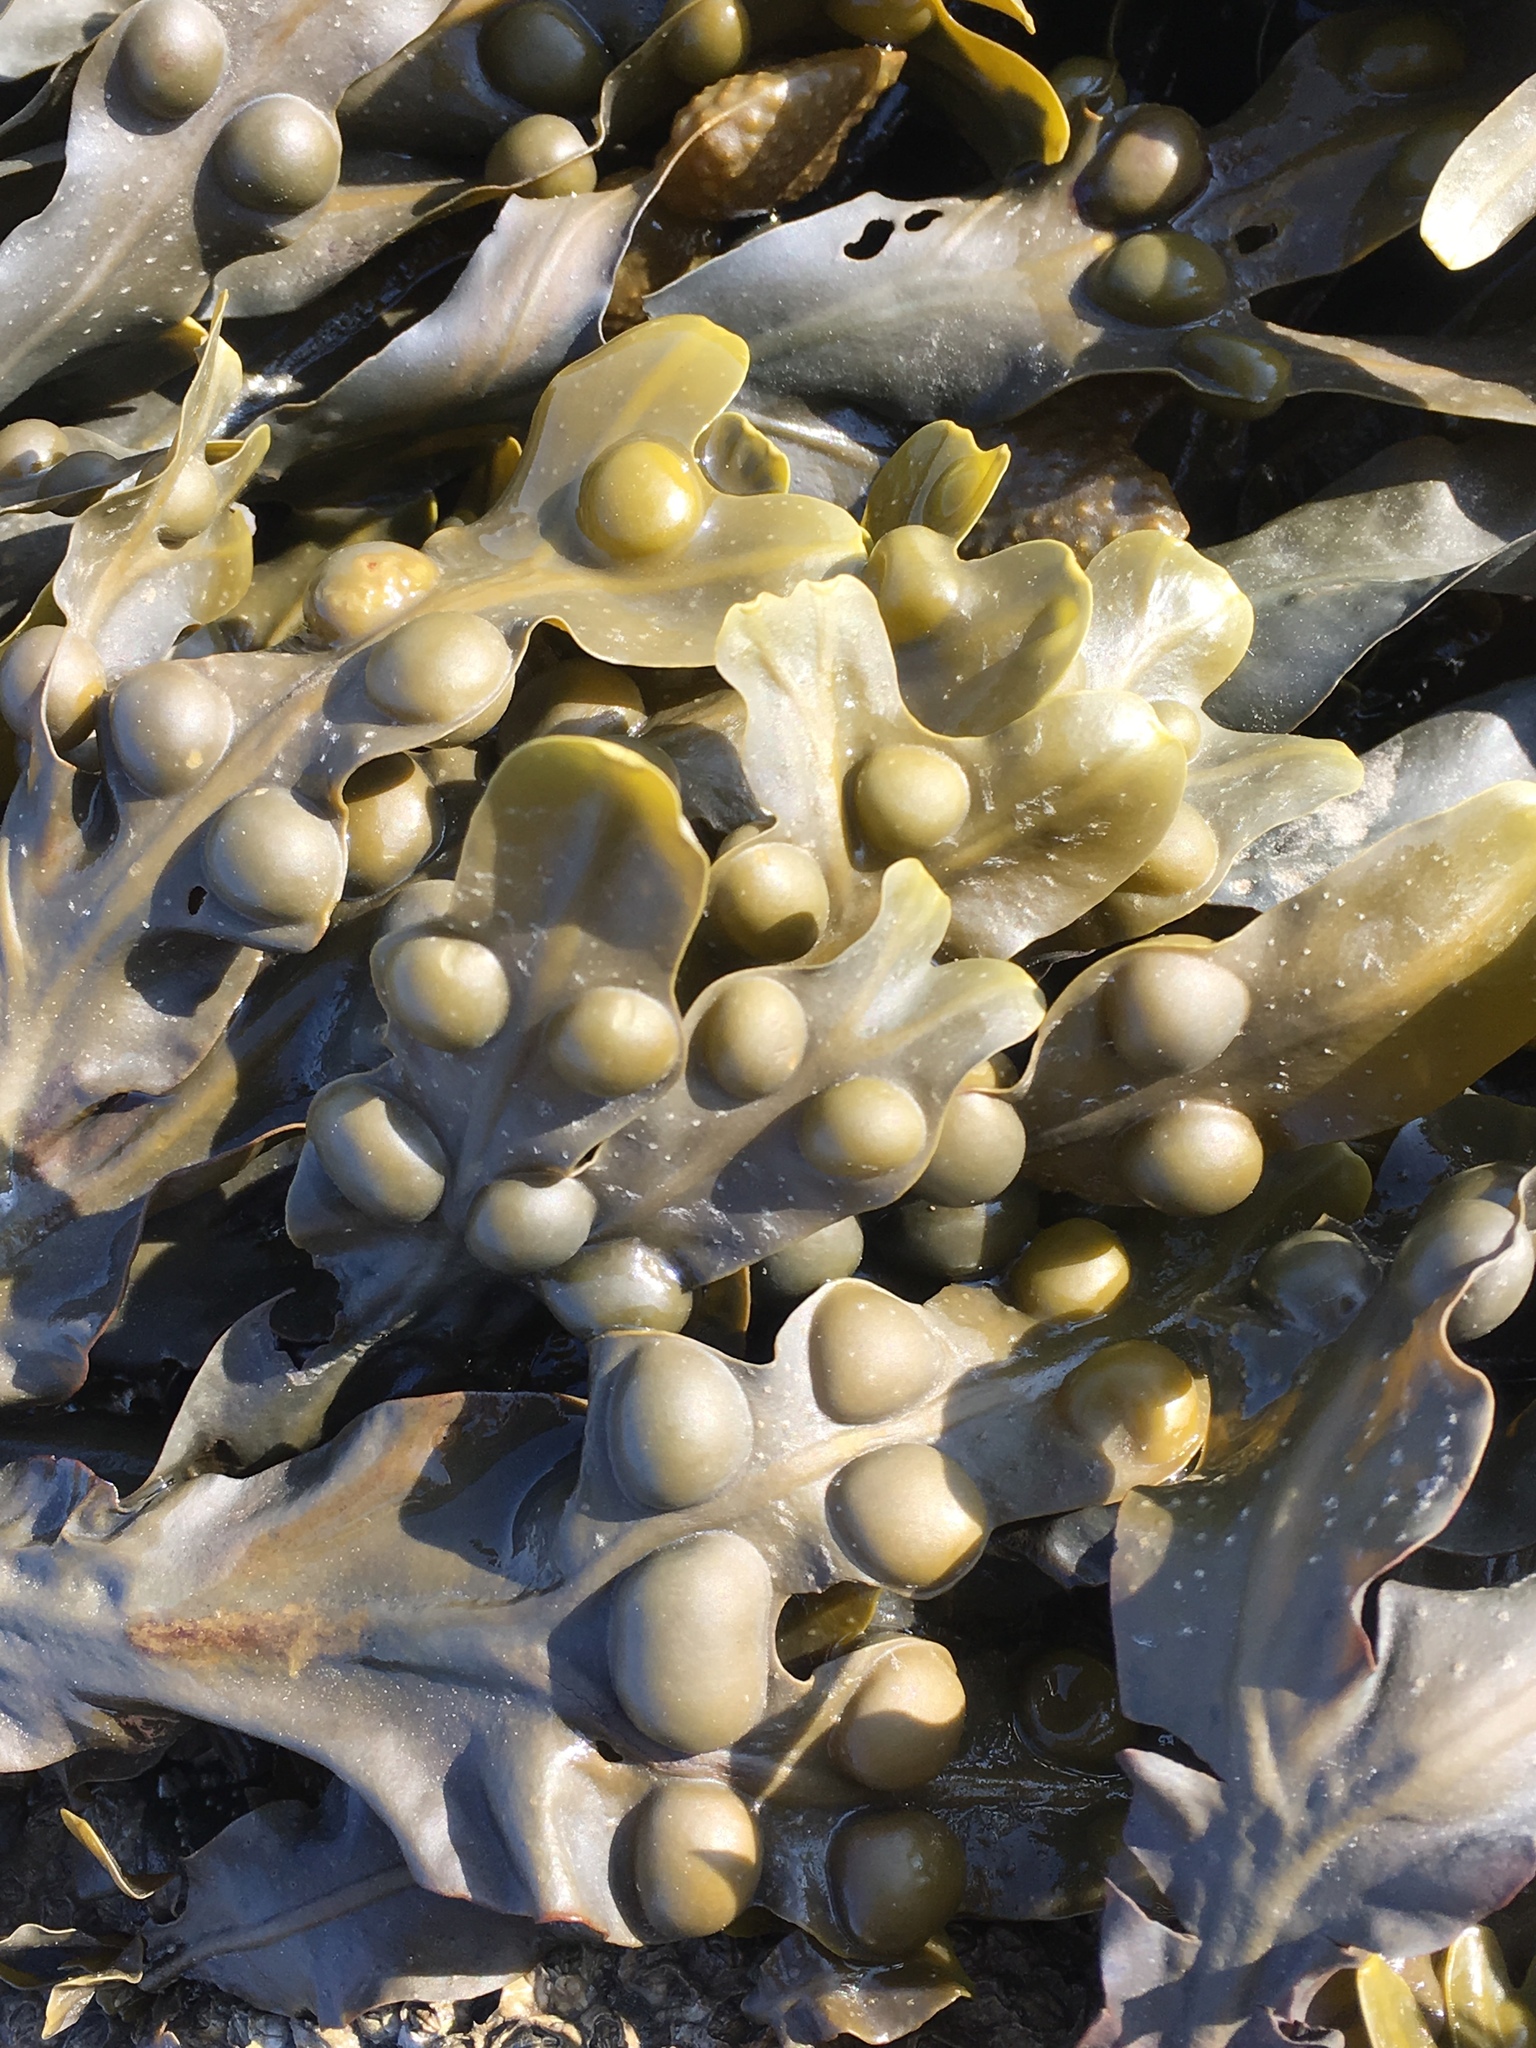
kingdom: Chromista
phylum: Ochrophyta
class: Phaeophyceae
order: Fucales
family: Fucaceae
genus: Fucus
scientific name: Fucus vesiculosus
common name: Bladder wrack
